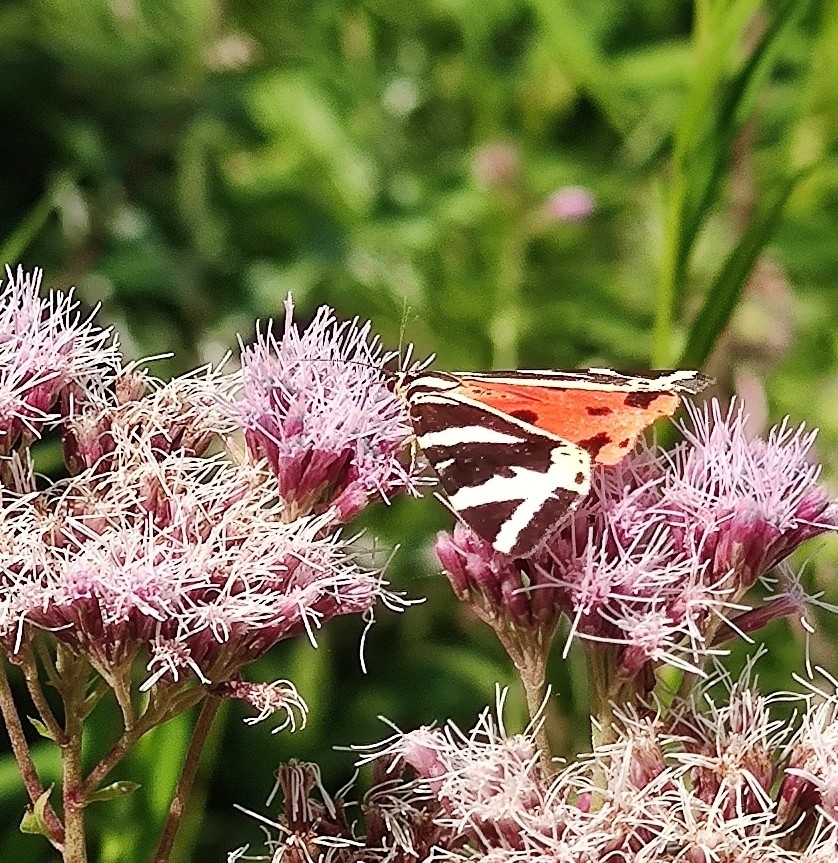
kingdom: Animalia
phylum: Arthropoda
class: Insecta
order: Lepidoptera
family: Erebidae
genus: Euplagia
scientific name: Euplagia quadripunctaria
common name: Jersey tiger
